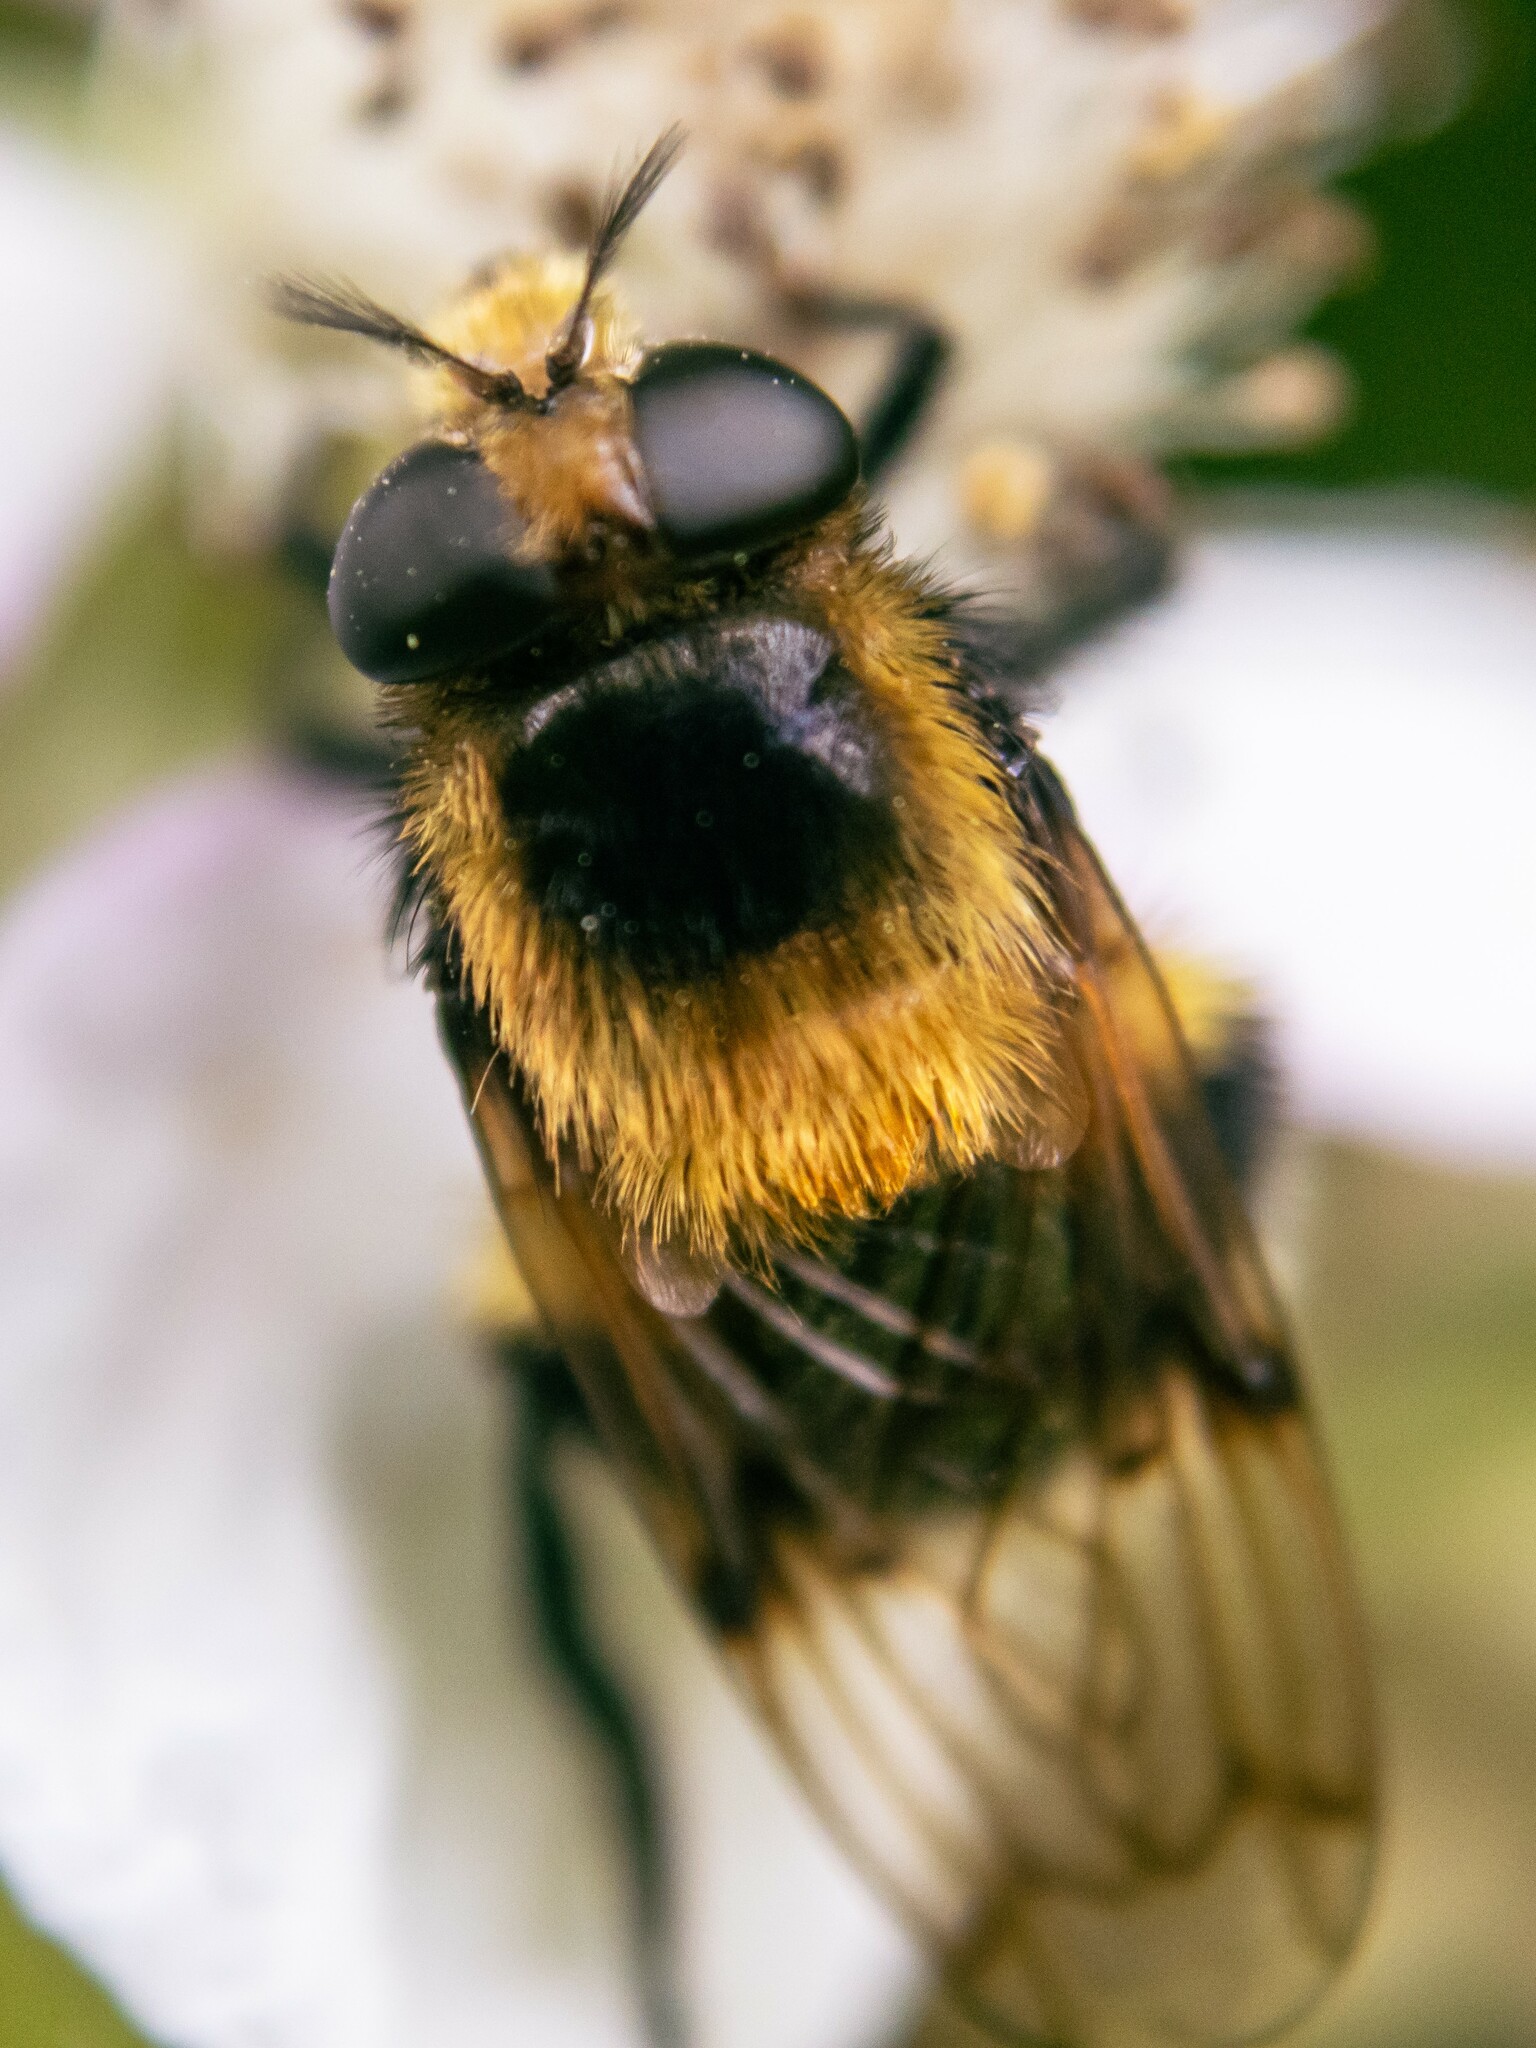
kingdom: Animalia
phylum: Arthropoda
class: Insecta
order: Diptera
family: Syrphidae
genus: Volucella
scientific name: Volucella bombylans
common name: Bumble bee hover fly
